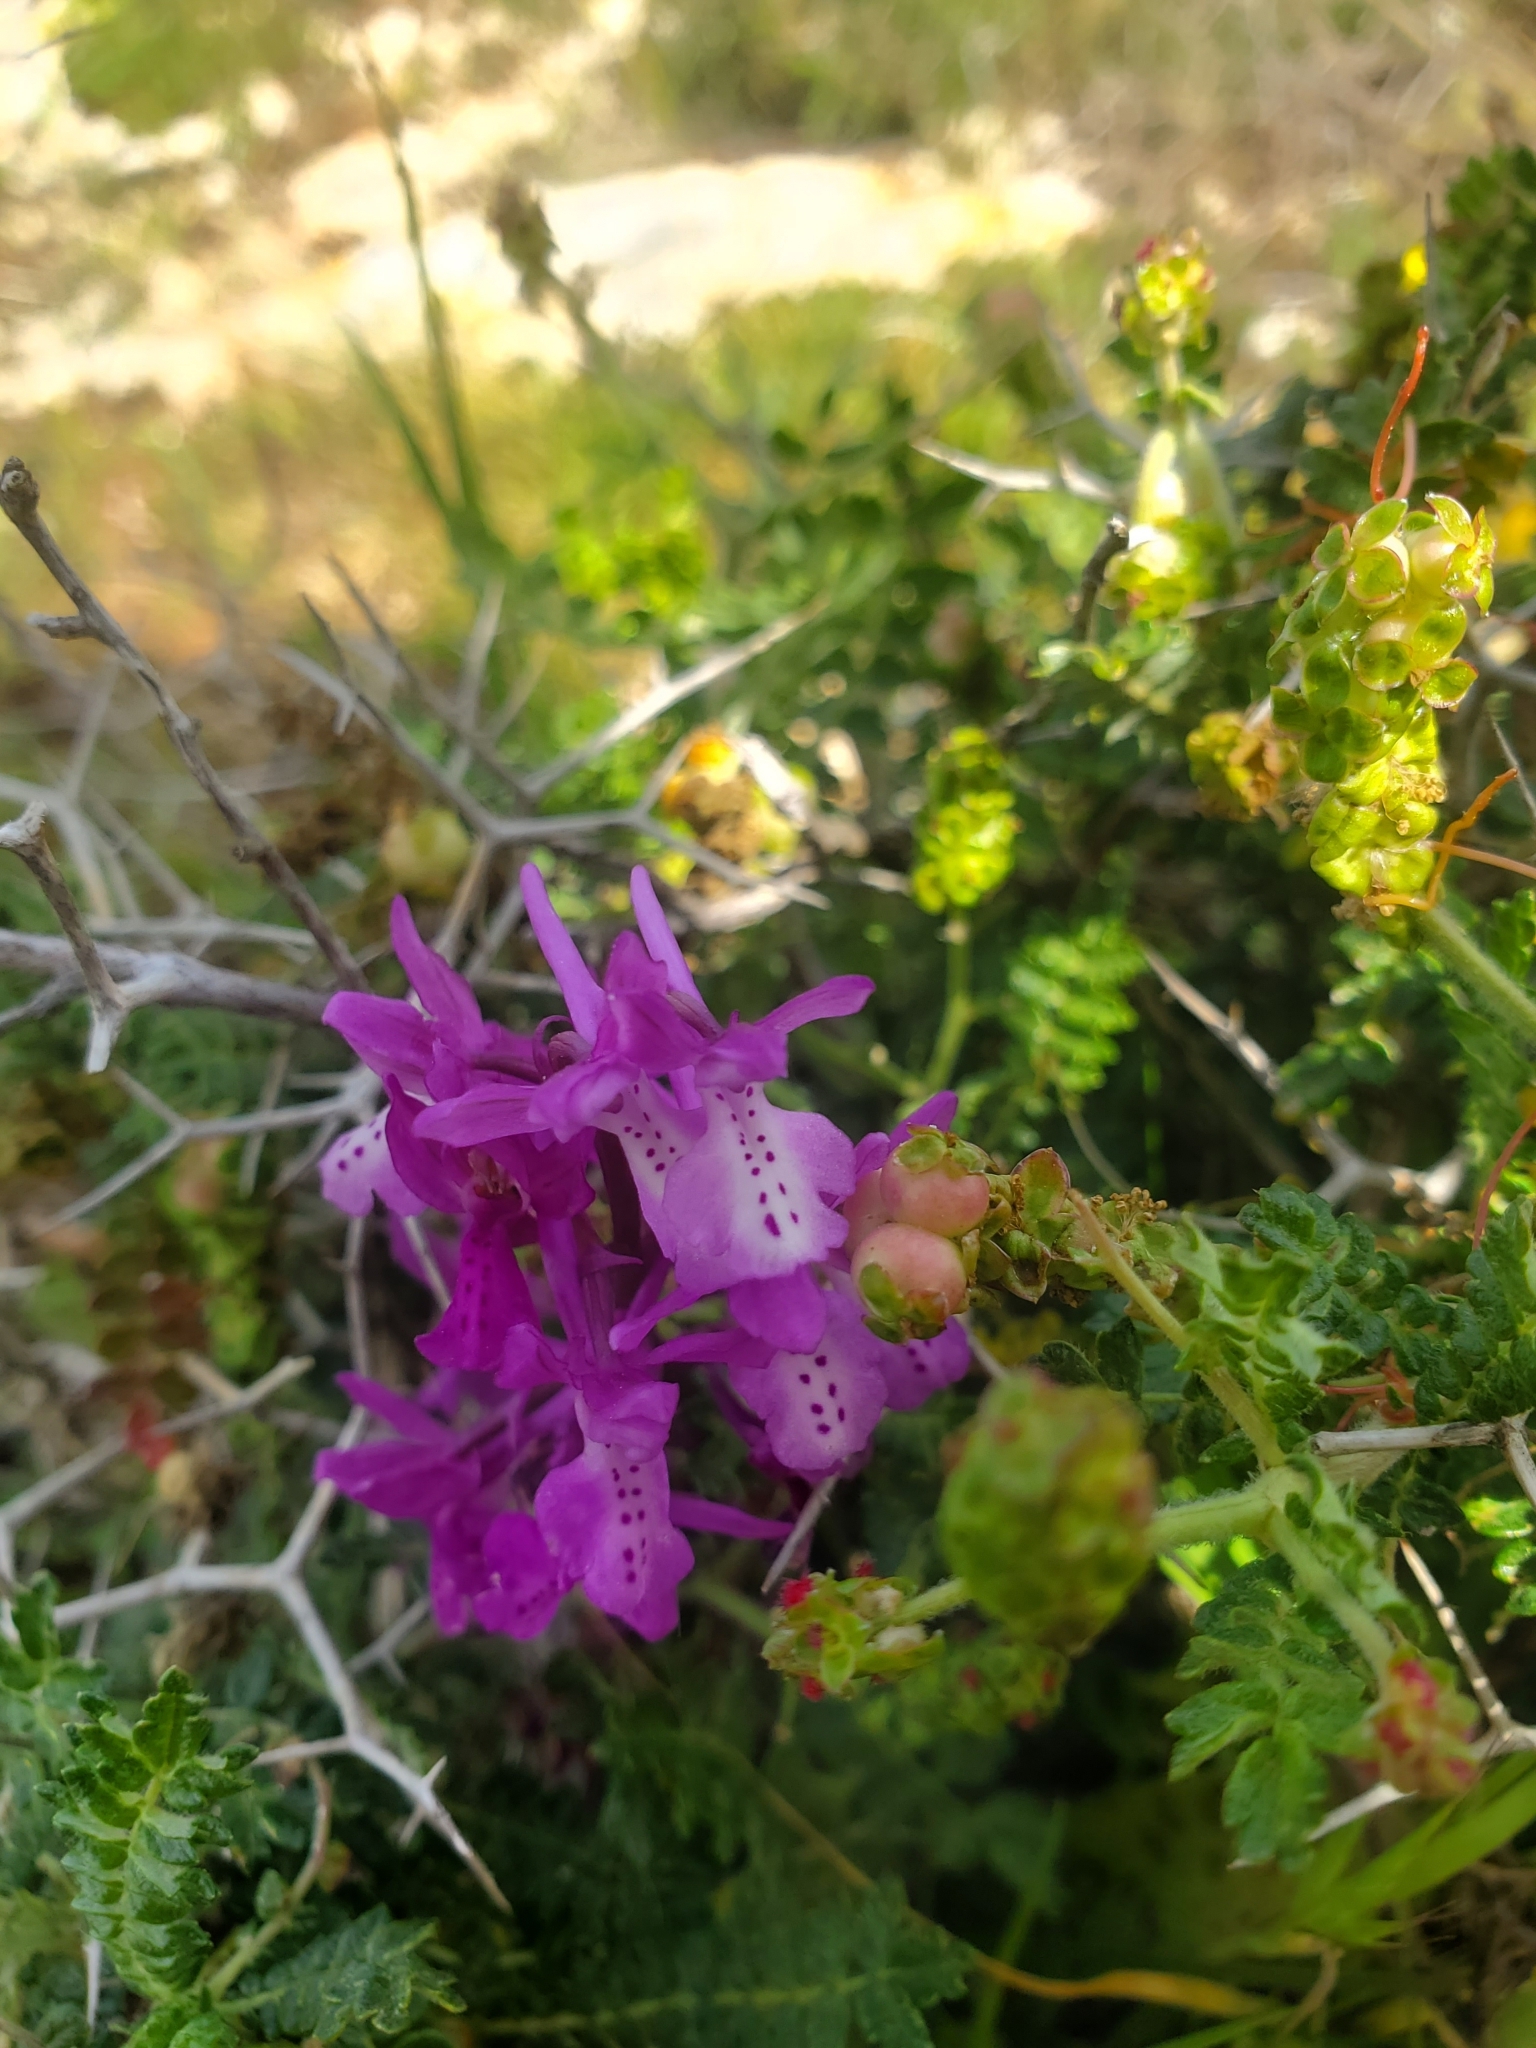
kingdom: Plantae
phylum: Tracheophyta
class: Liliopsida
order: Asparagales
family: Orchidaceae
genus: Orchis
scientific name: Orchis anatolica
